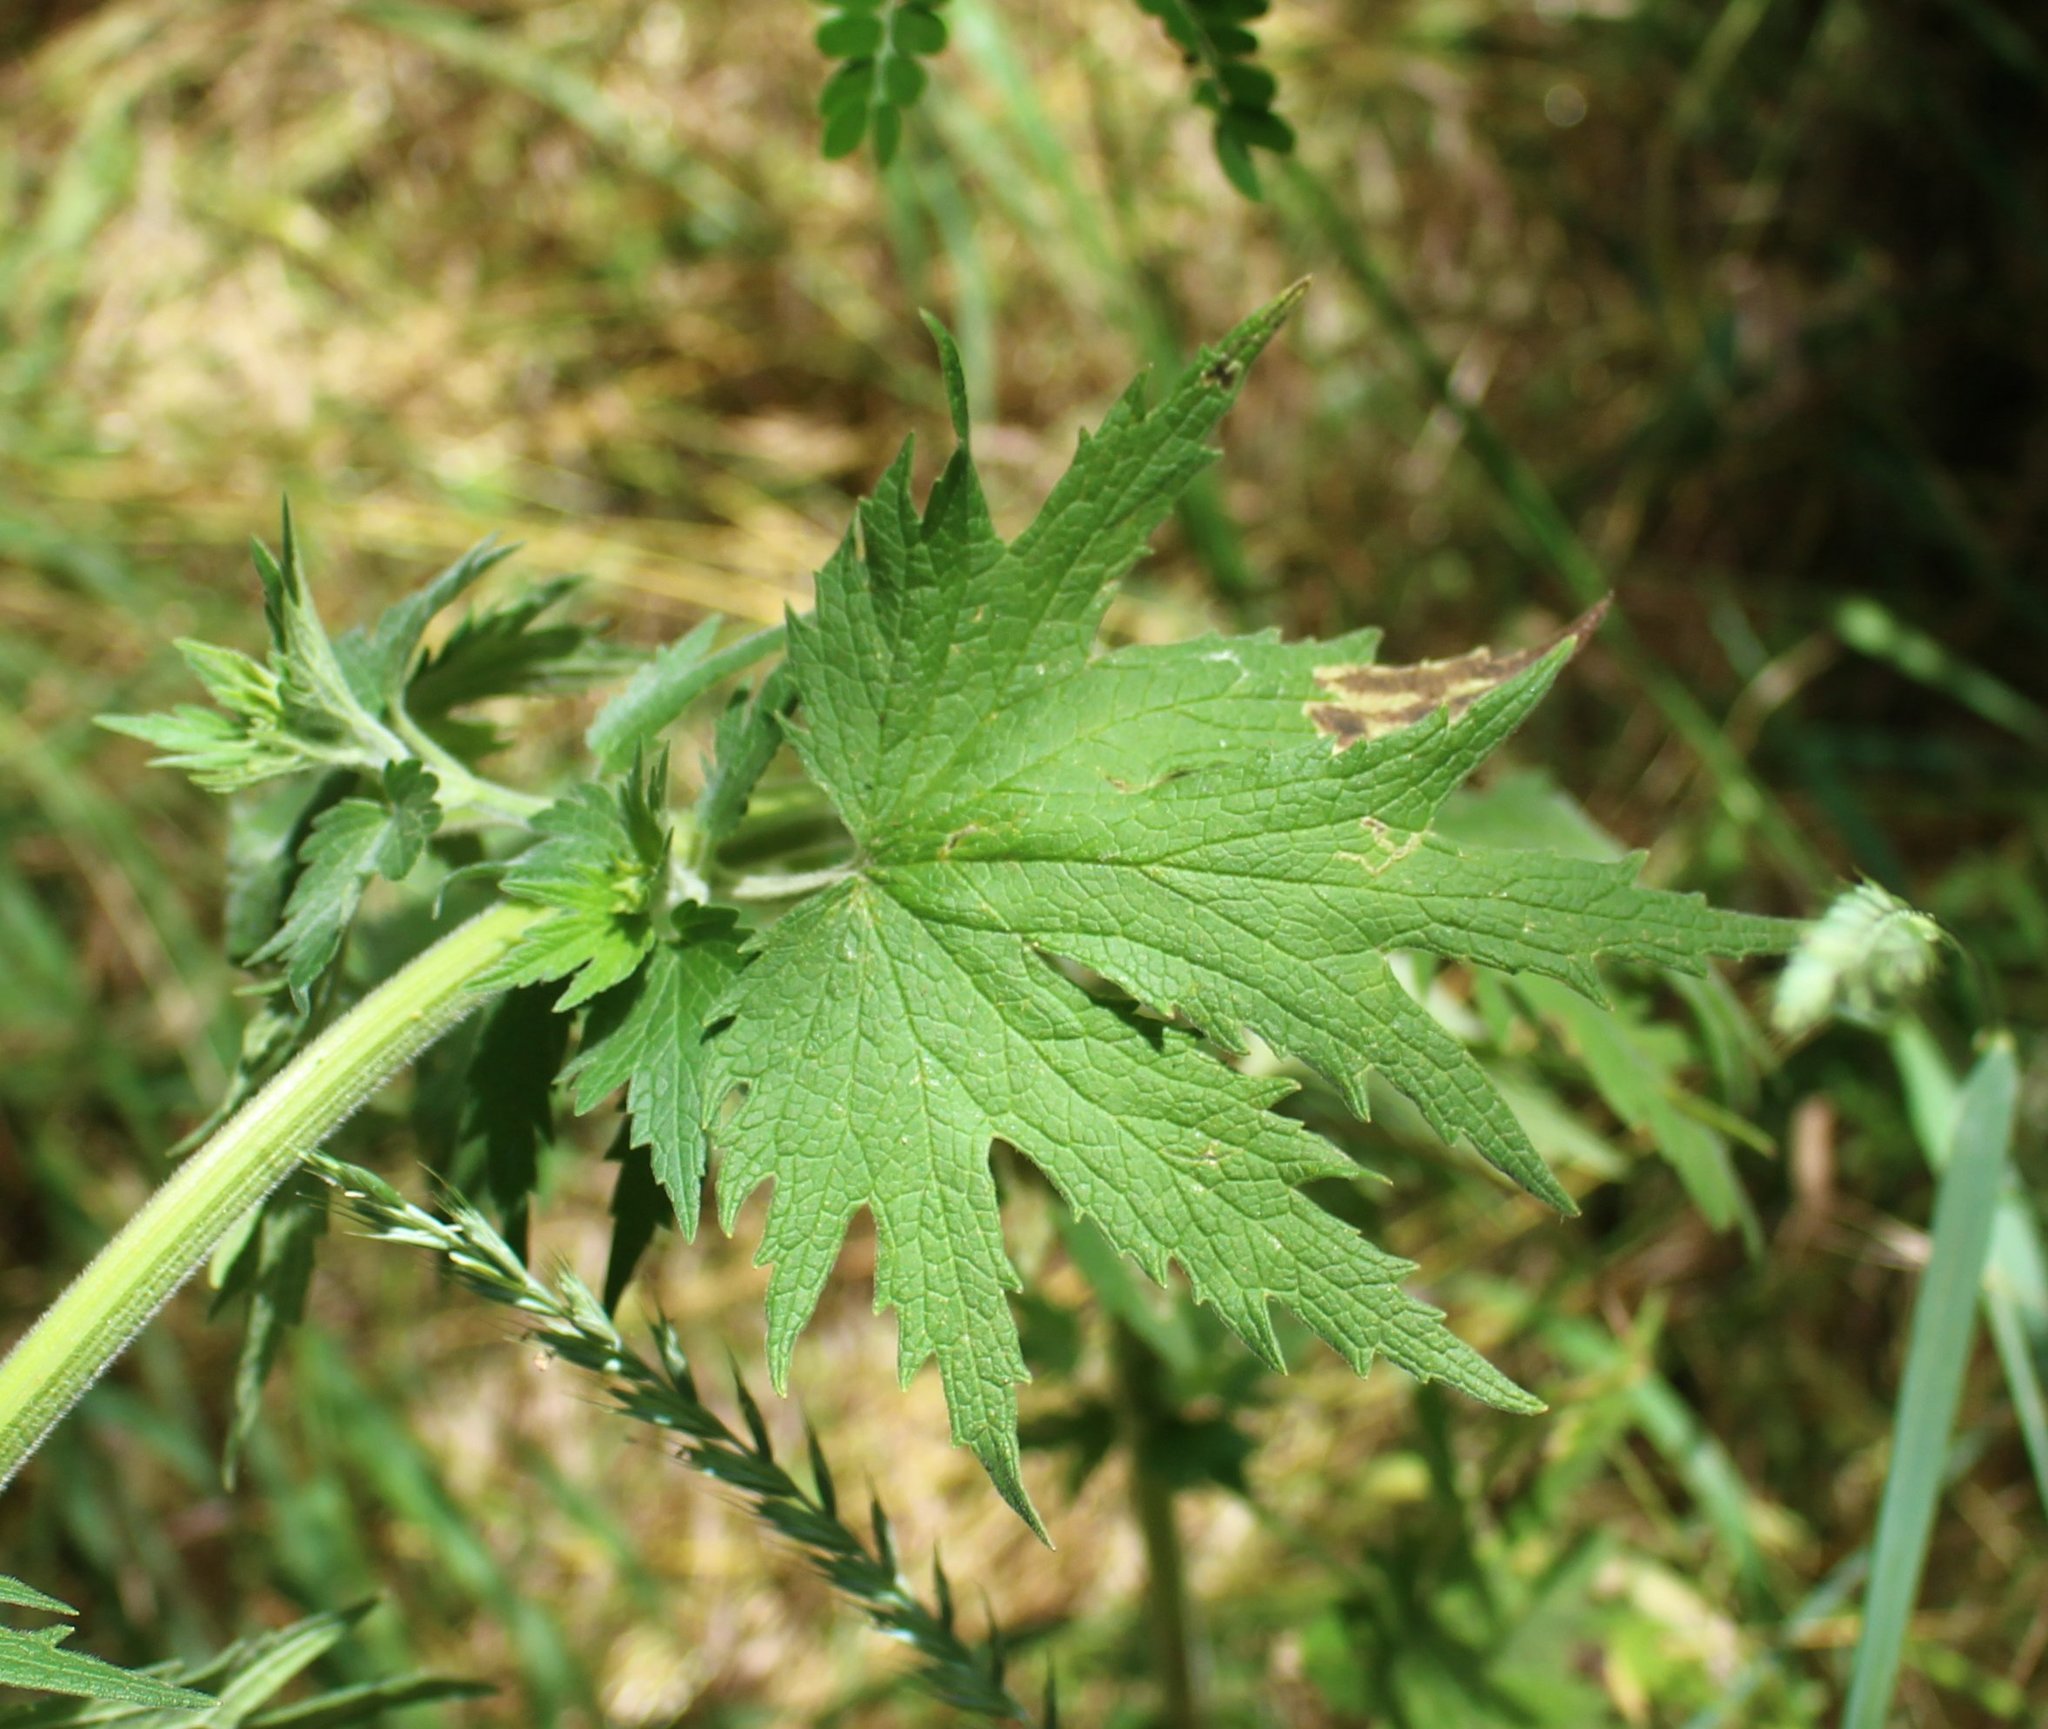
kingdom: Plantae
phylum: Tracheophyta
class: Magnoliopsida
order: Lamiales
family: Lamiaceae
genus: Leonurus
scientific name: Leonurus quinquelobatus
